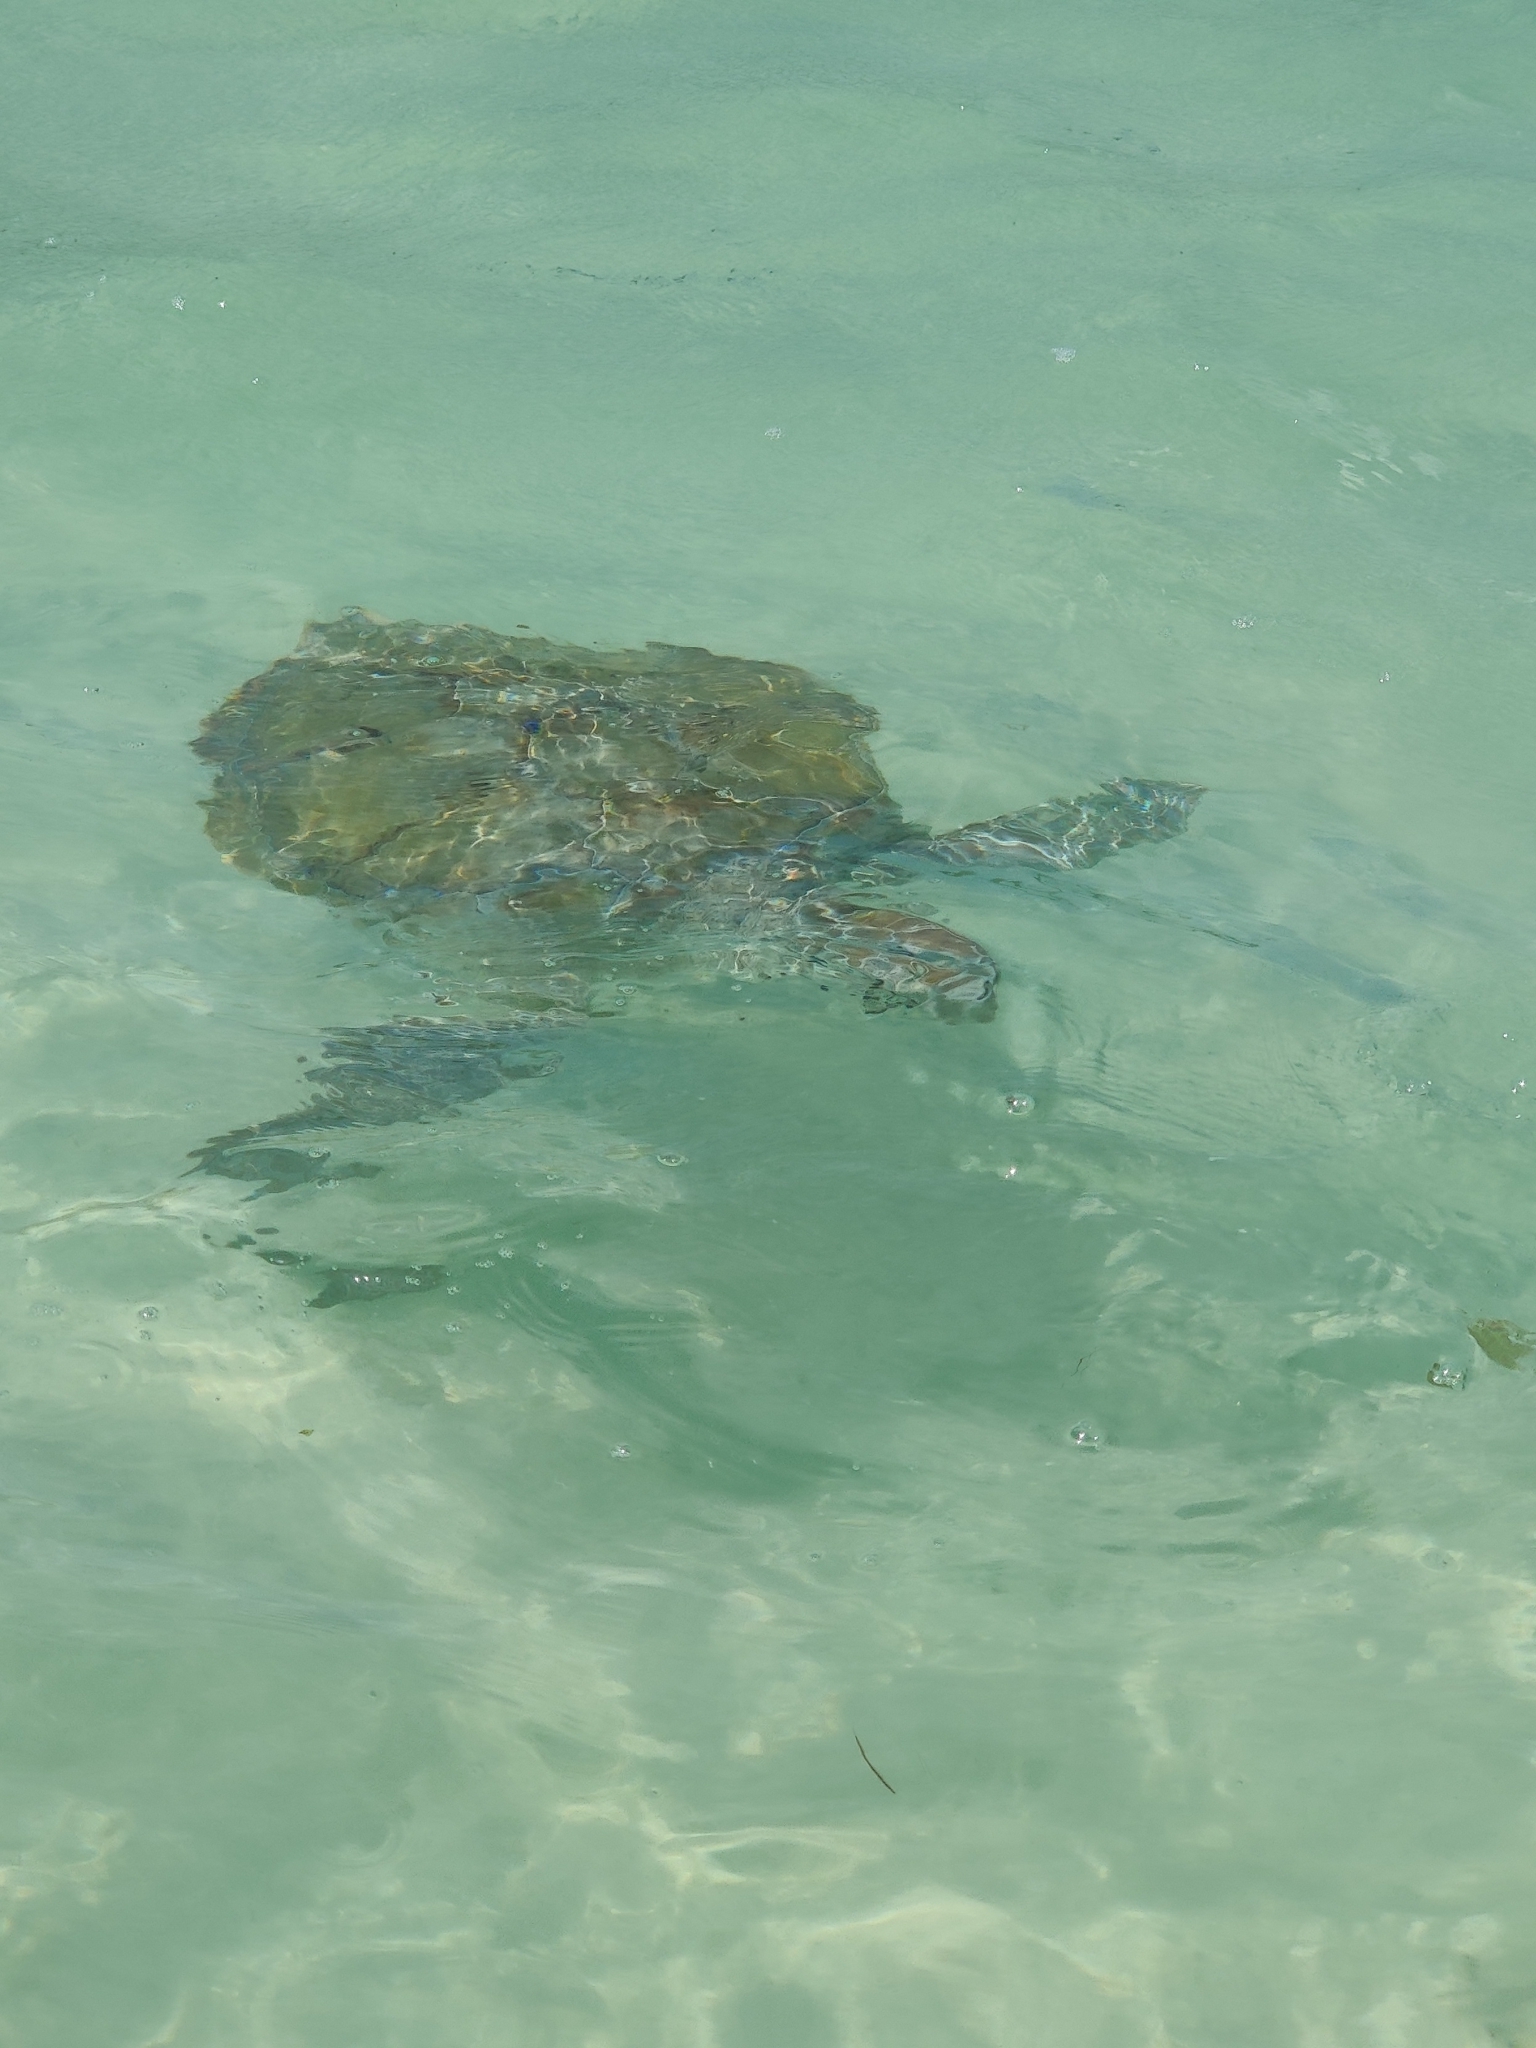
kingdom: Animalia
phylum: Chordata
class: Testudines
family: Cheloniidae
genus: Chelonia
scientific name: Chelonia mydas
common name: Green turtle
